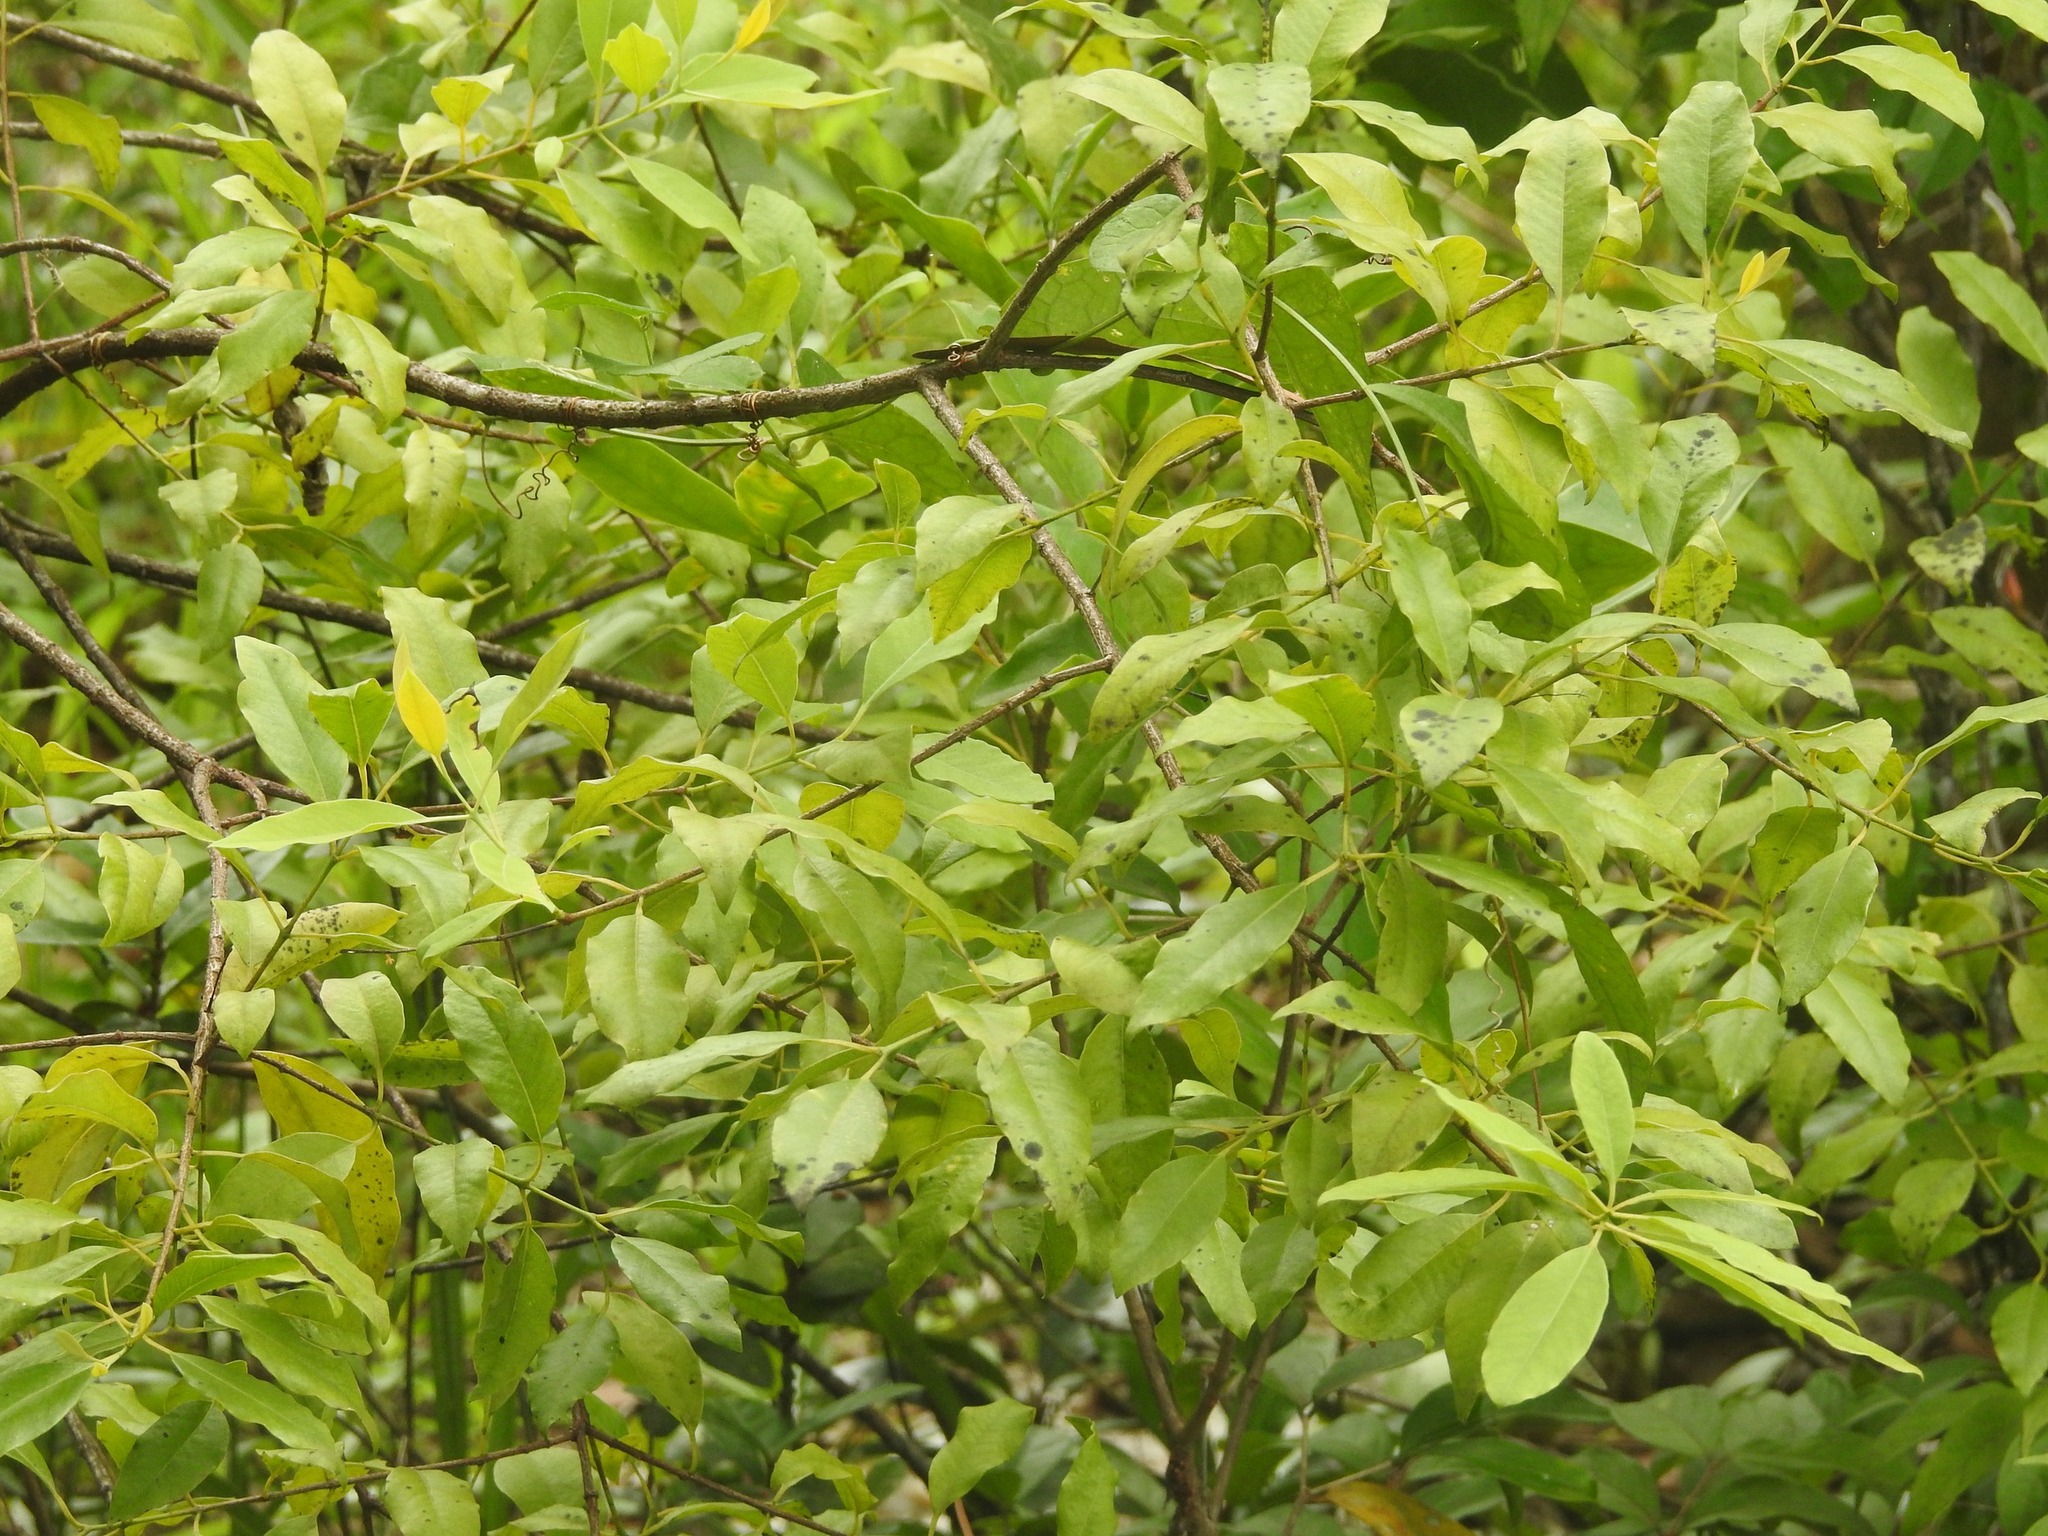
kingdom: Plantae
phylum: Tracheophyta
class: Magnoliopsida
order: Santalales
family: Santalaceae
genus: Santalum
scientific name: Santalum album
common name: Indian sandalwood
